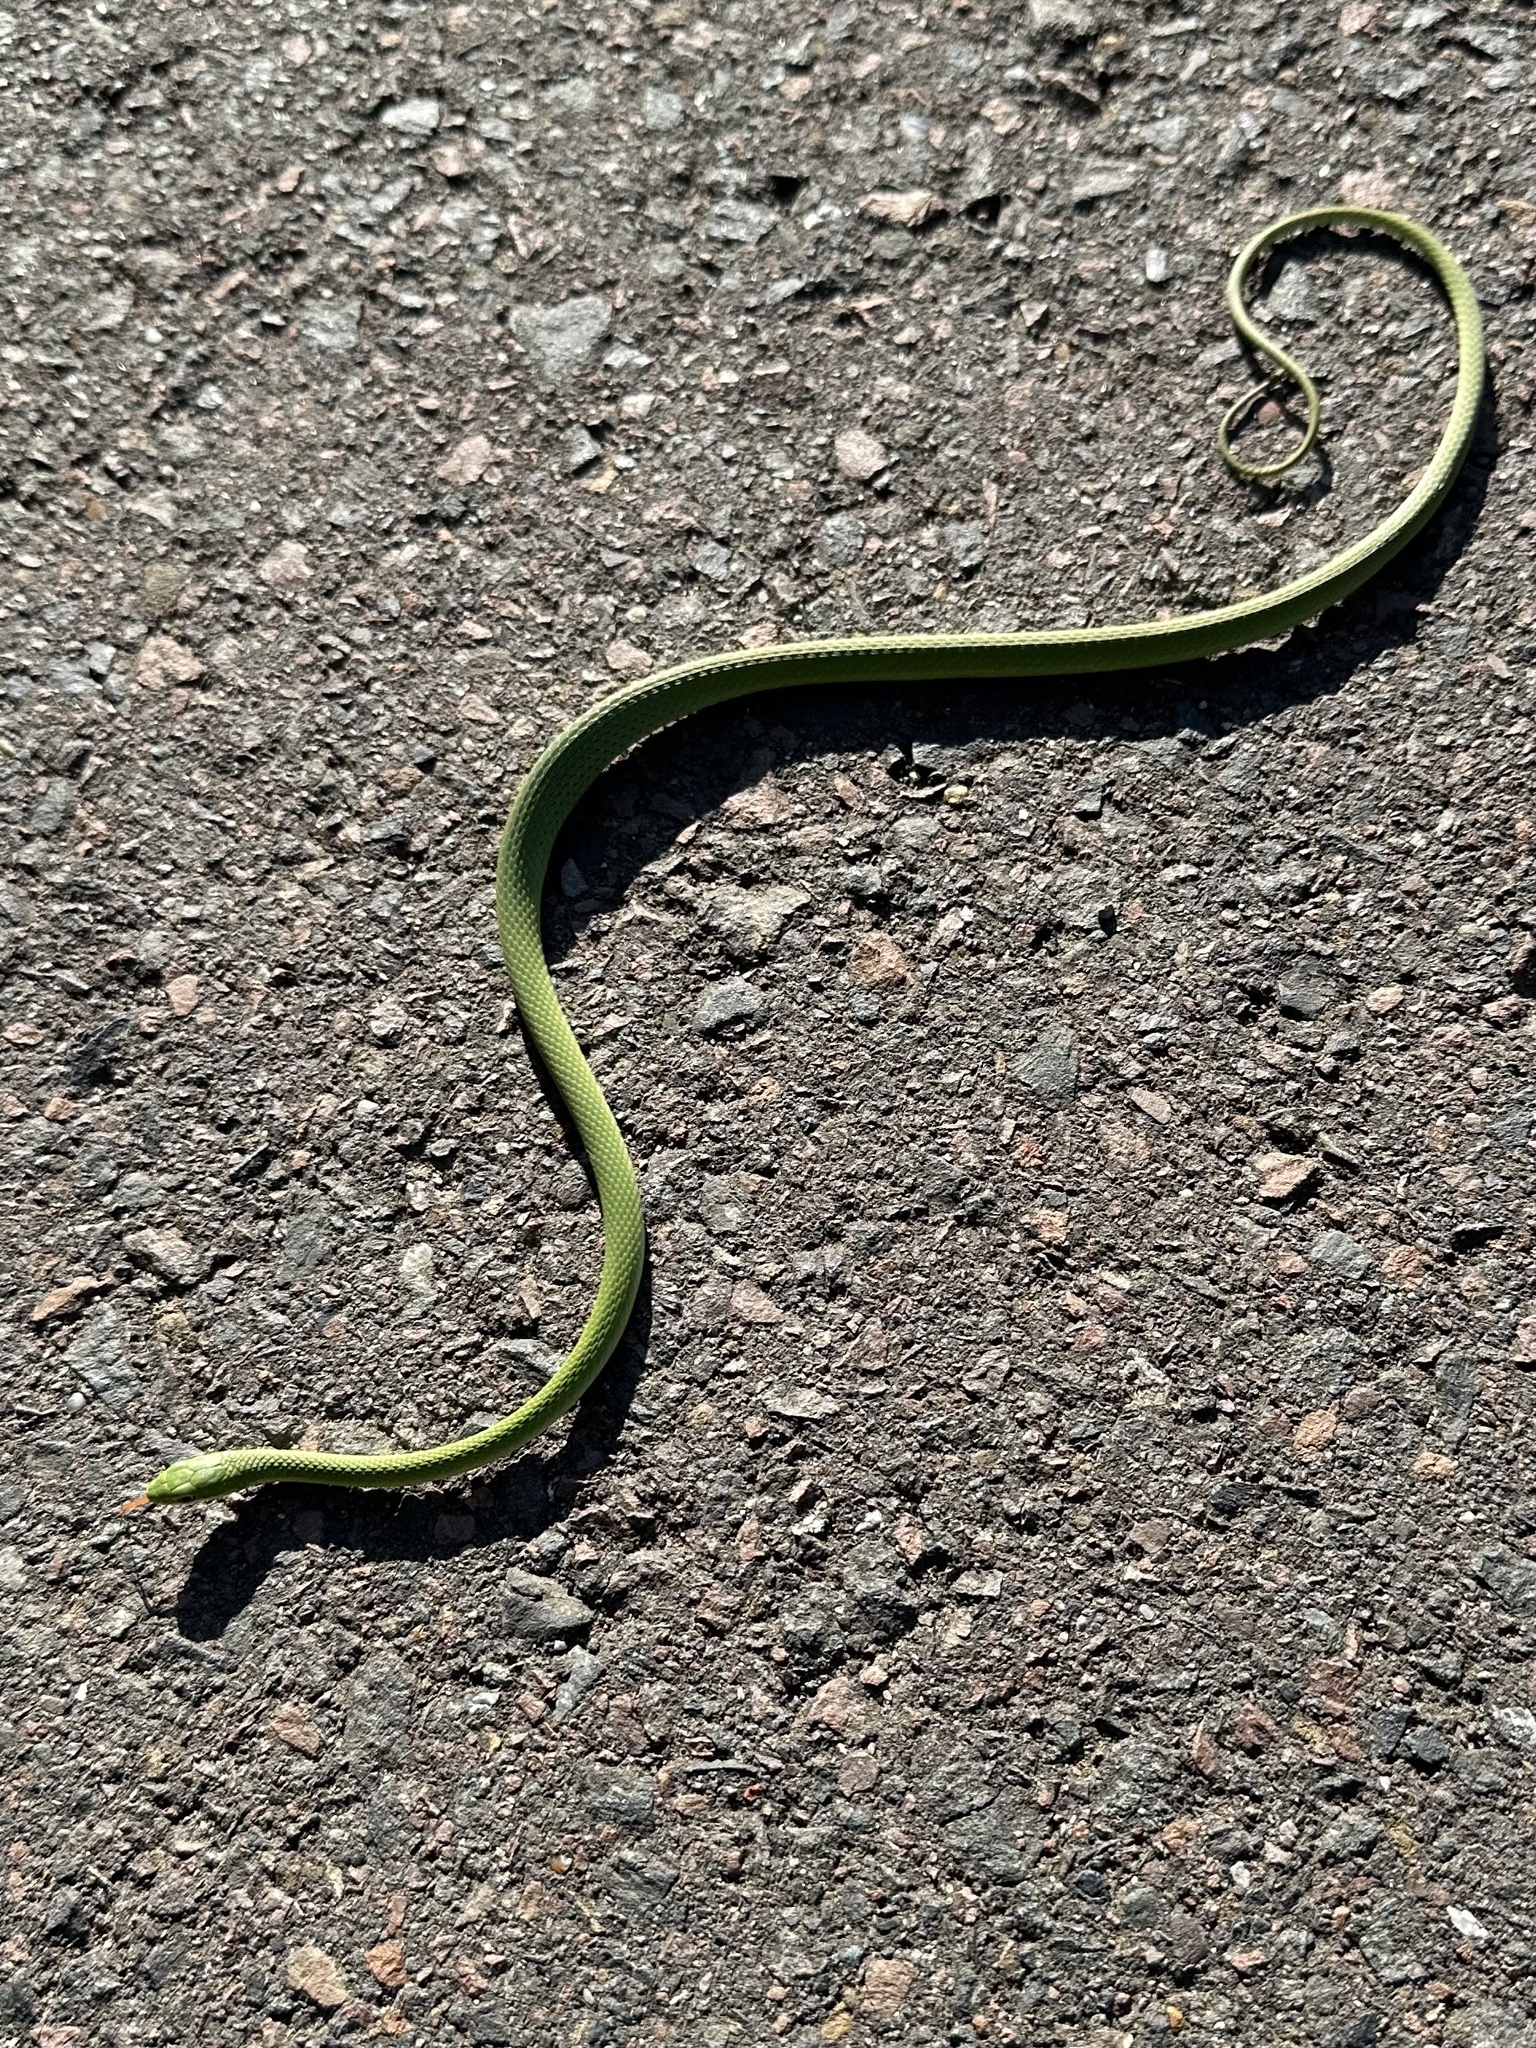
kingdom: Animalia
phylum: Chordata
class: Squamata
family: Colubridae
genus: Opheodrys
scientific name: Opheodrys aestivus
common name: Rough greensnake
